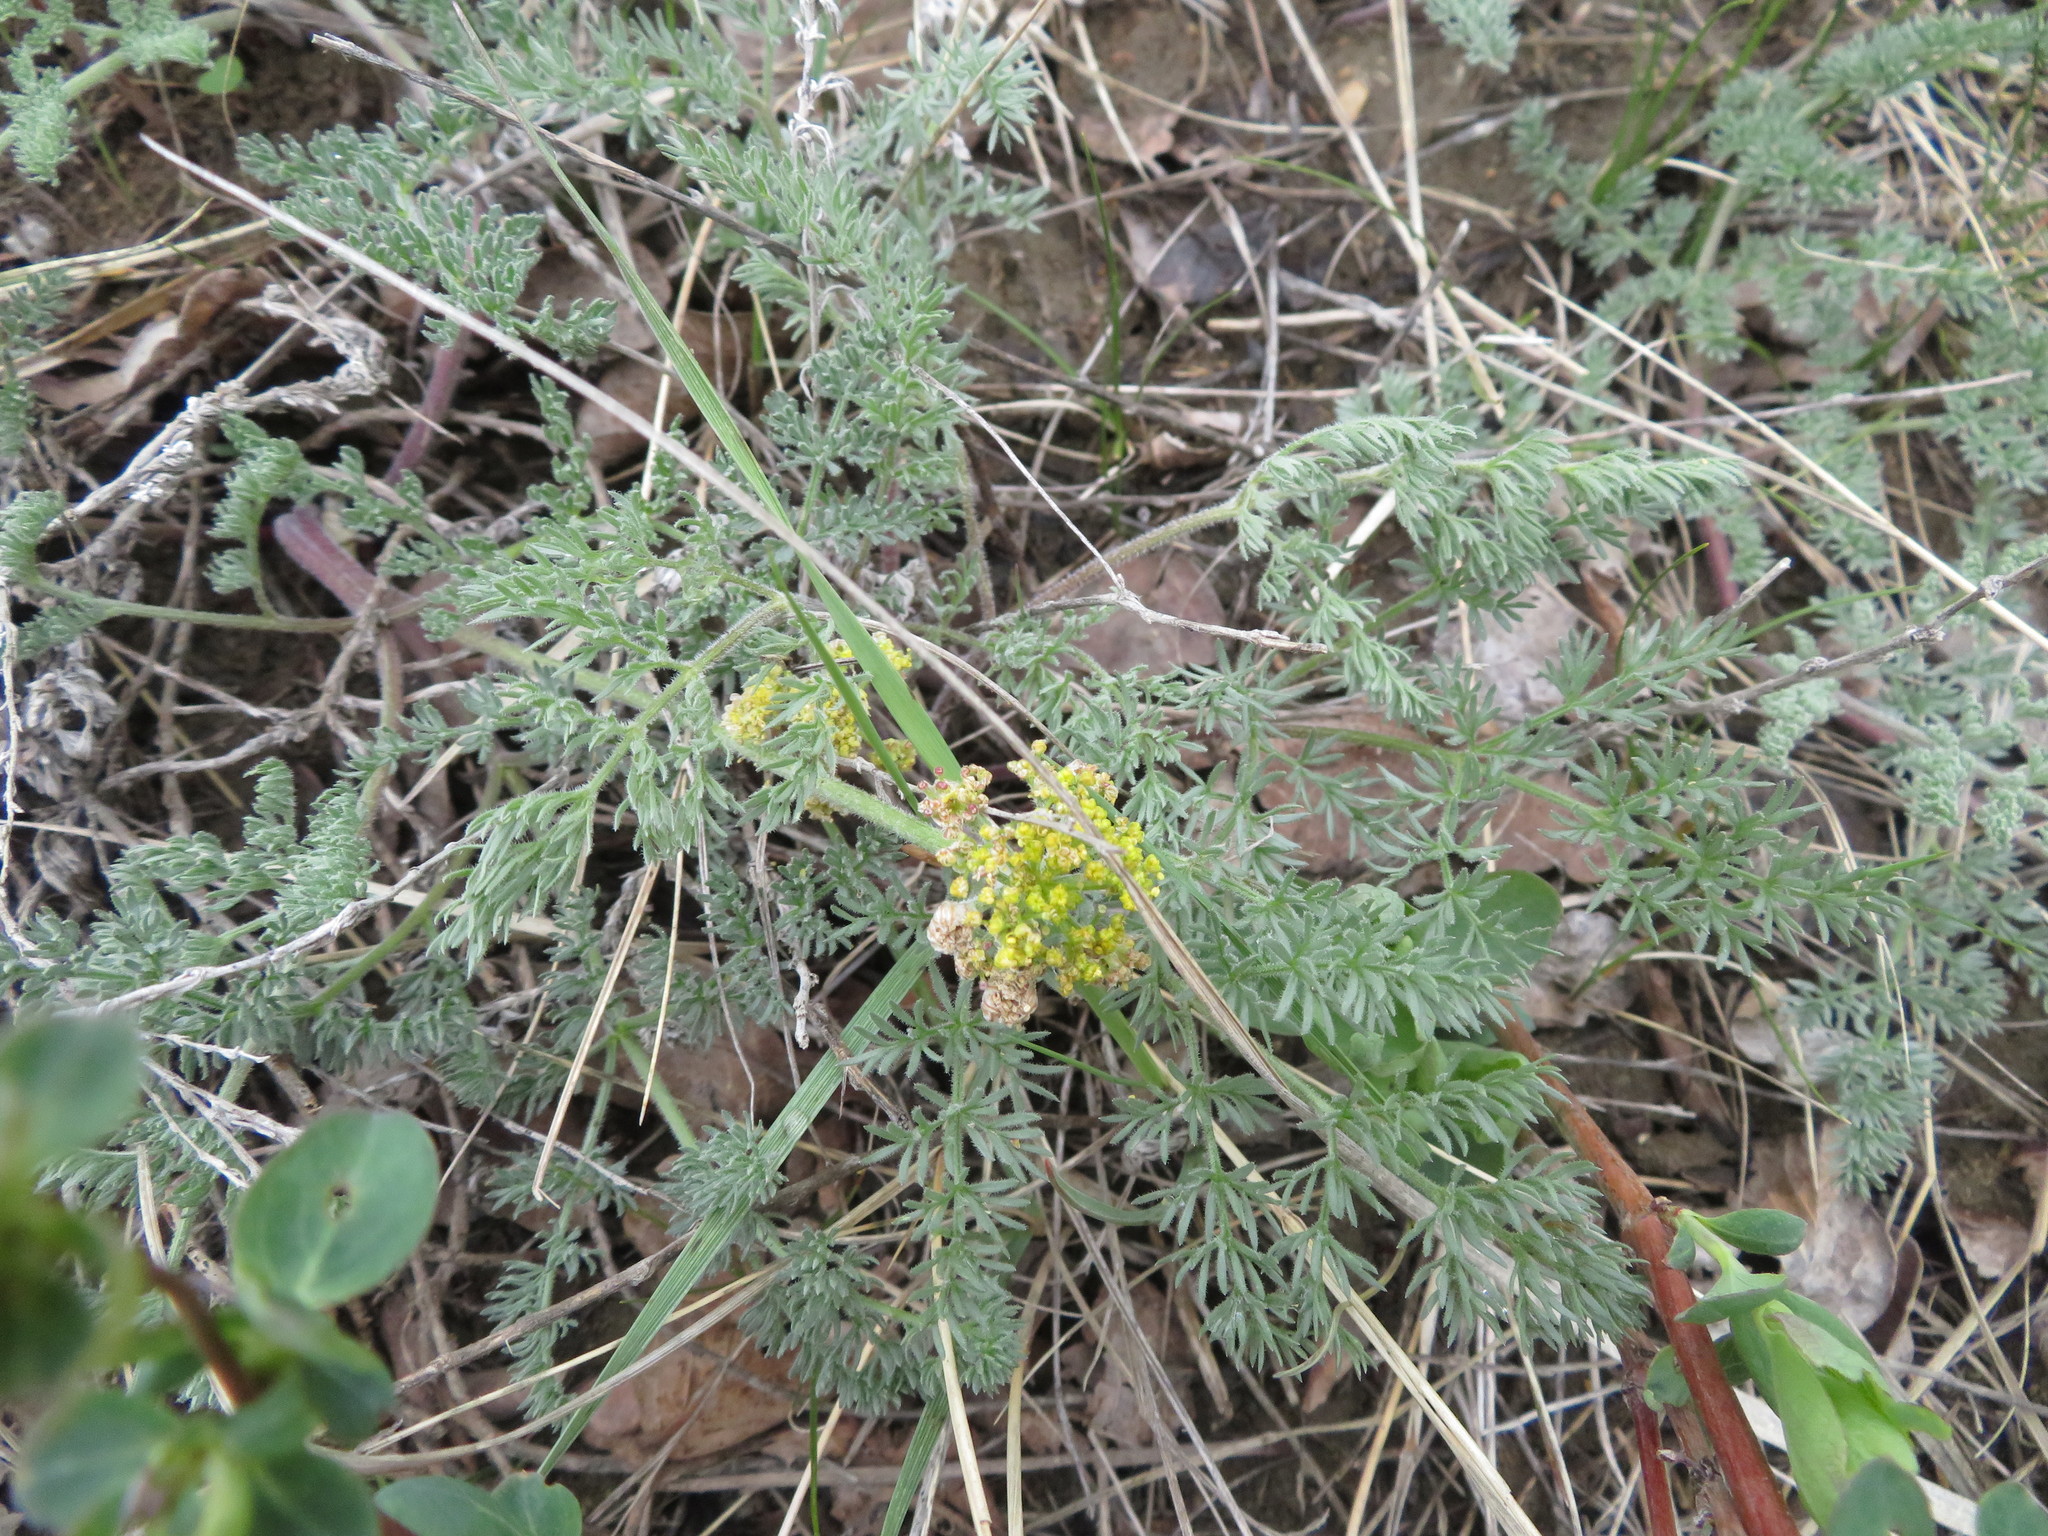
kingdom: Plantae
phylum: Tracheophyta
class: Magnoliopsida
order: Apiales
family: Apiaceae
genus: Lomatium
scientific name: Lomatium foeniculaceum
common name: Desert-parsley
